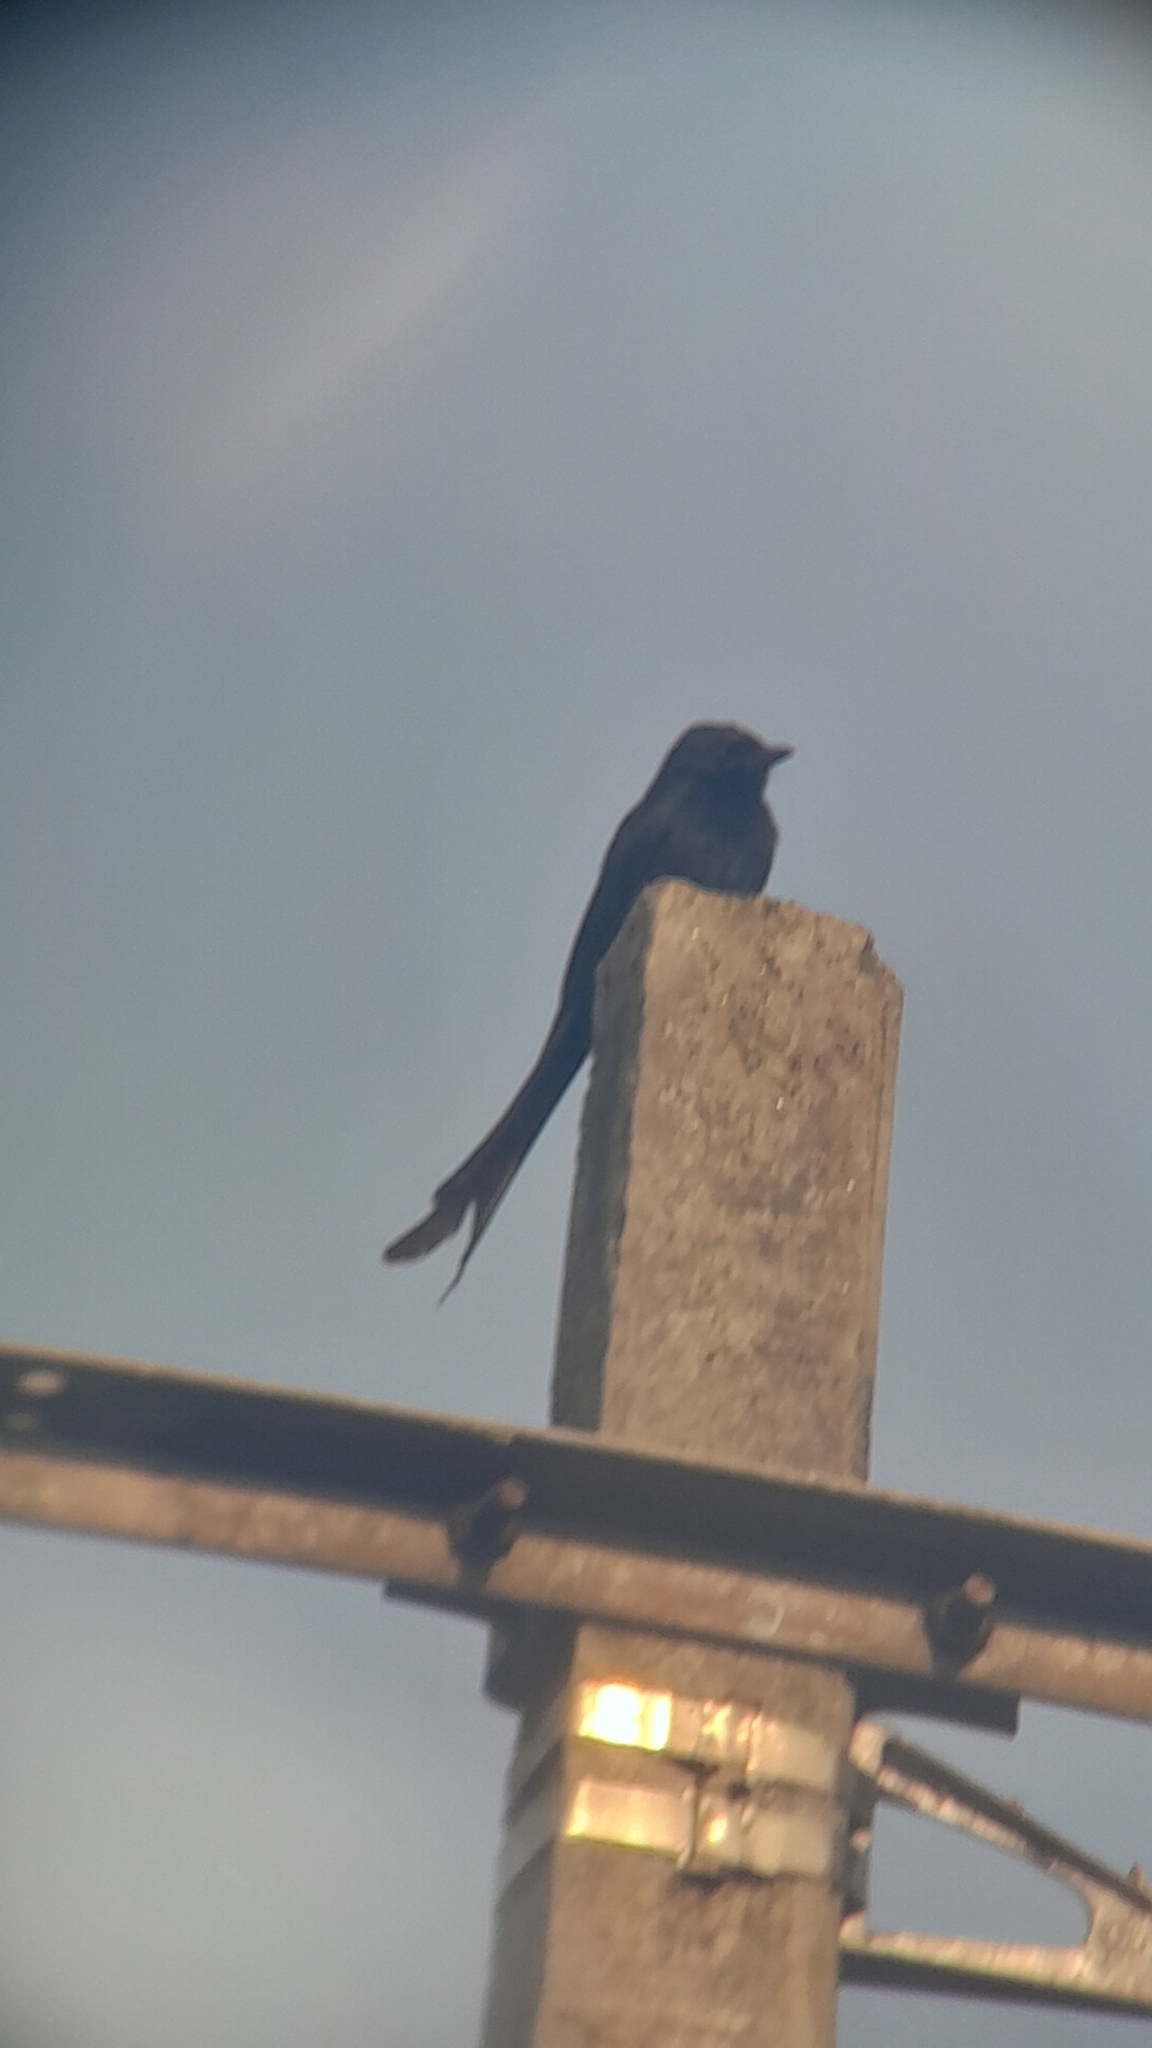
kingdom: Animalia
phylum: Chordata
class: Aves
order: Passeriformes
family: Dicruridae
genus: Dicrurus
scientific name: Dicrurus macrocercus
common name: Black drongo
